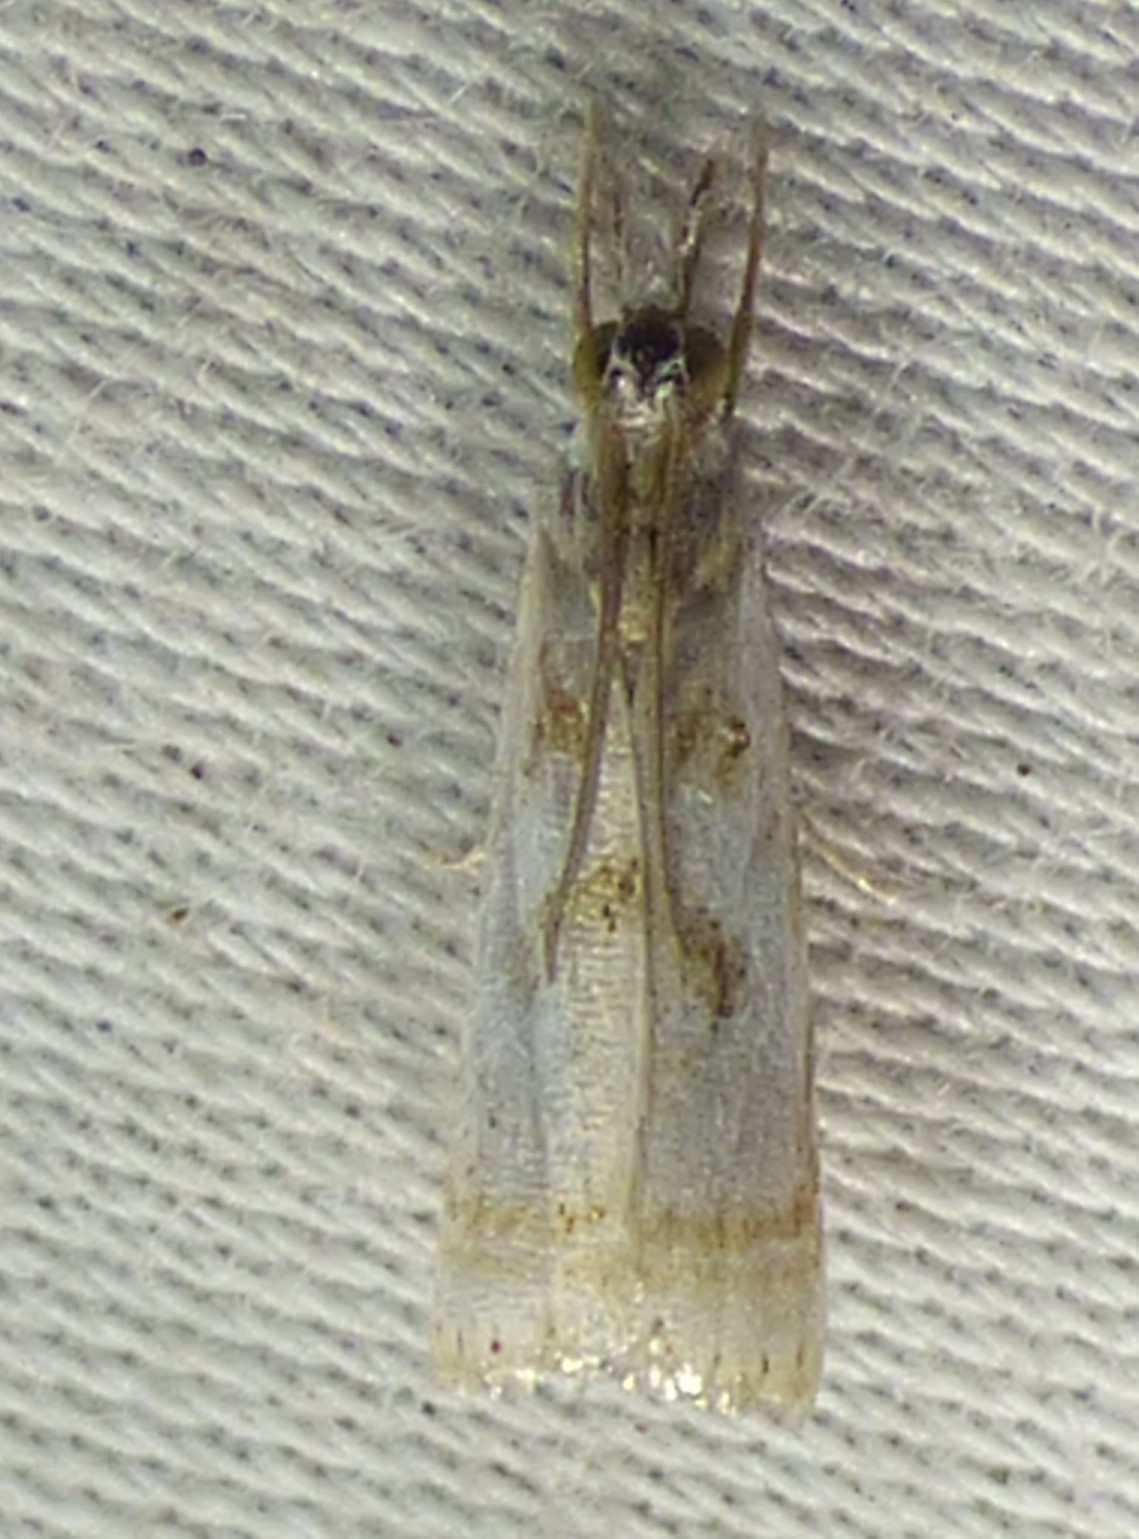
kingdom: Animalia
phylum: Arthropoda
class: Insecta
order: Lepidoptera
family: Crambidae
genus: Microcrambus
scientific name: Microcrambus elegans
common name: Elegant grass-veneer
